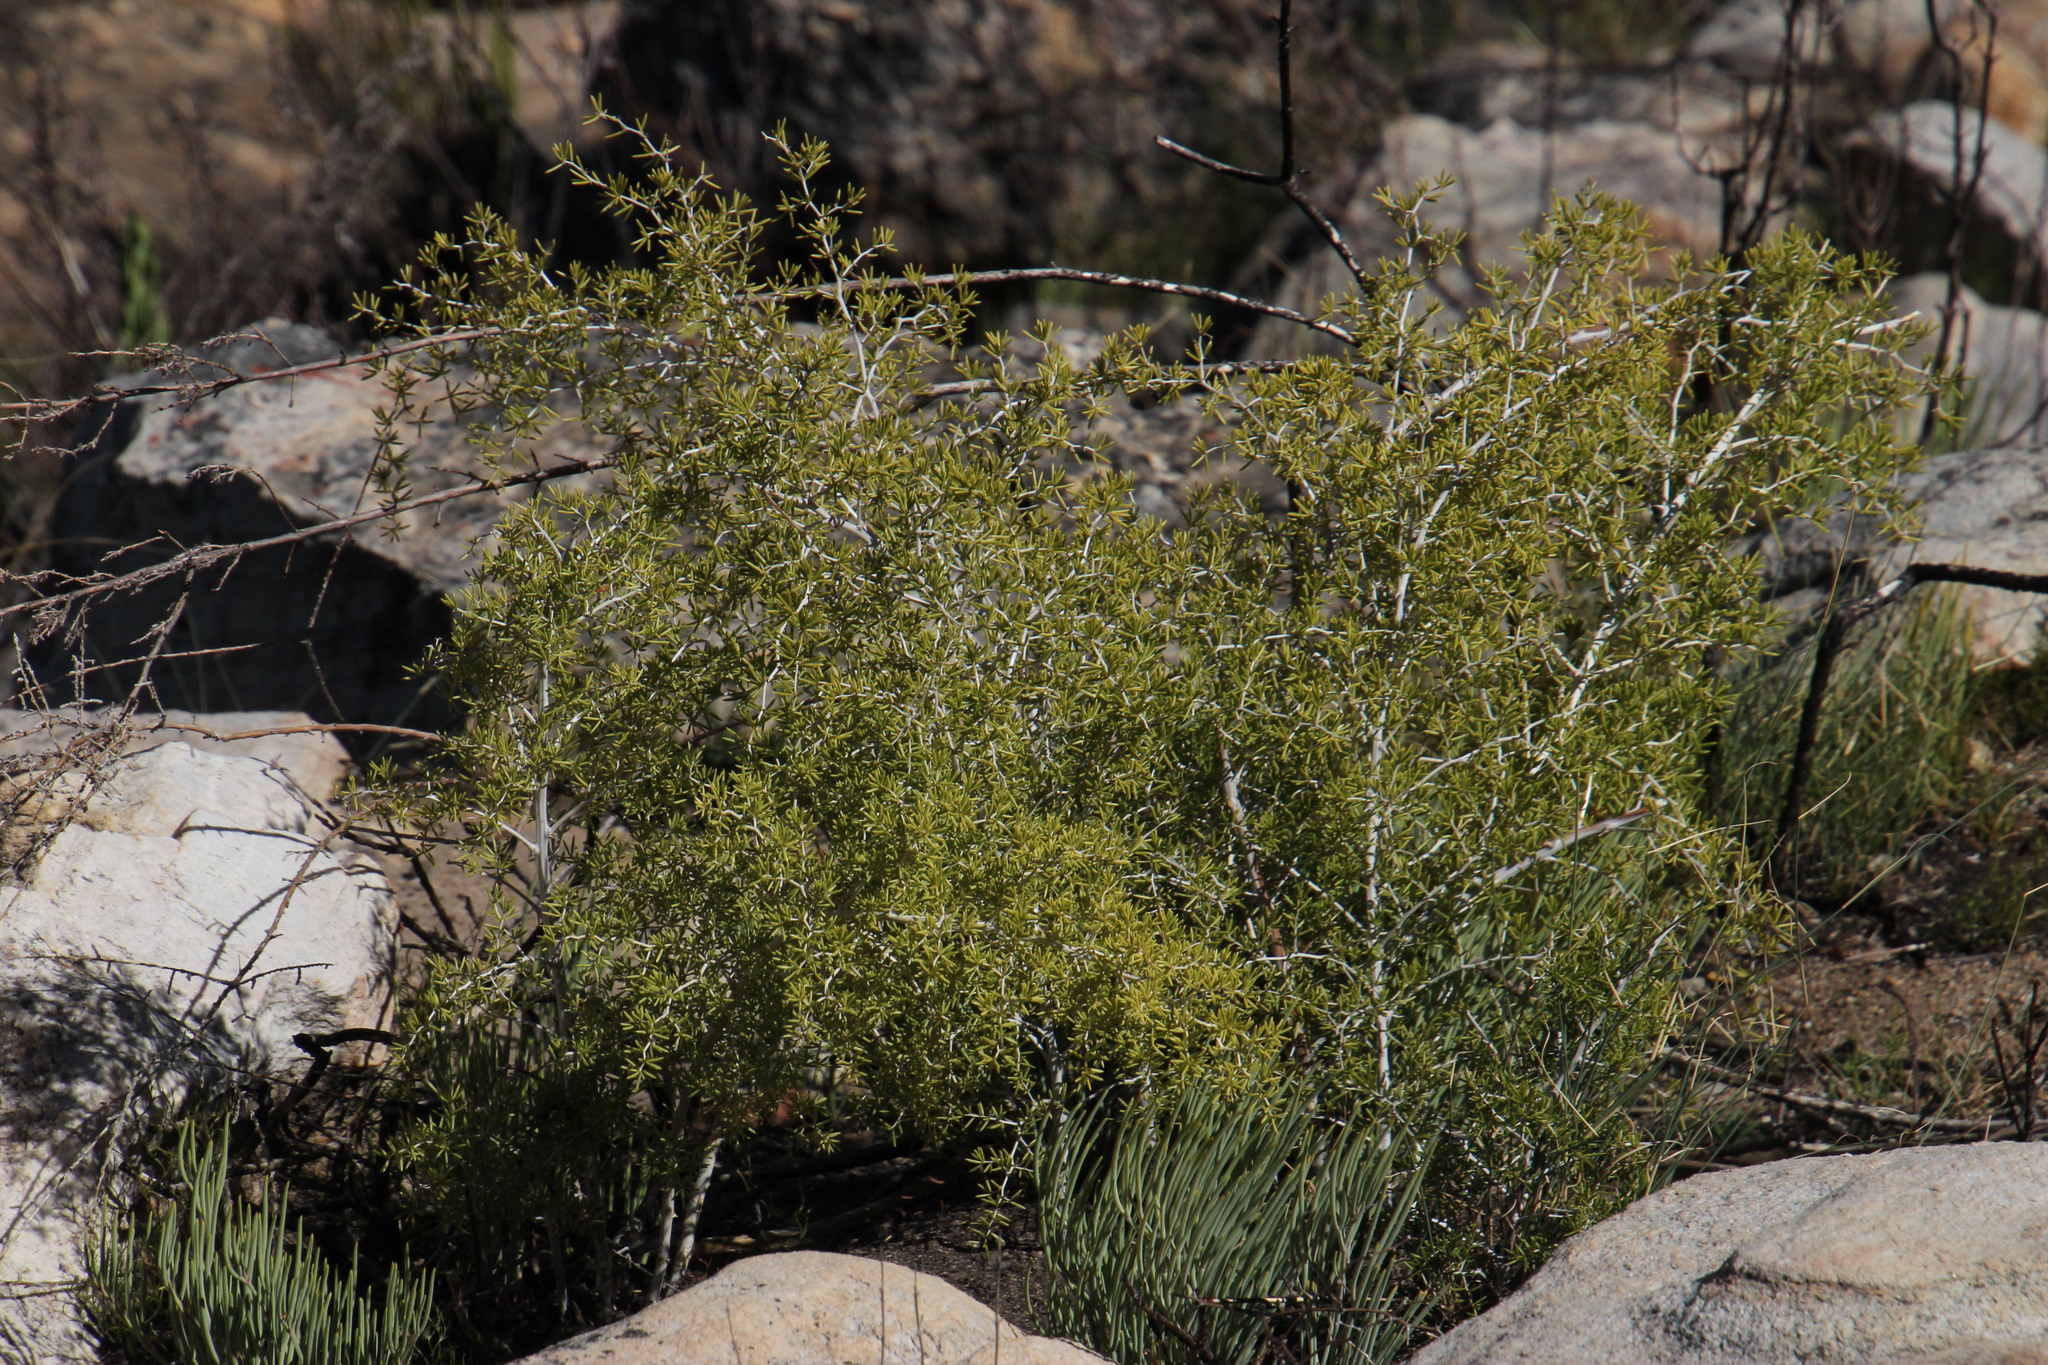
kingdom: Plantae
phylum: Tracheophyta
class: Liliopsida
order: Asparagales
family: Asparagaceae
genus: Asparagus
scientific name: Asparagus lignosus
